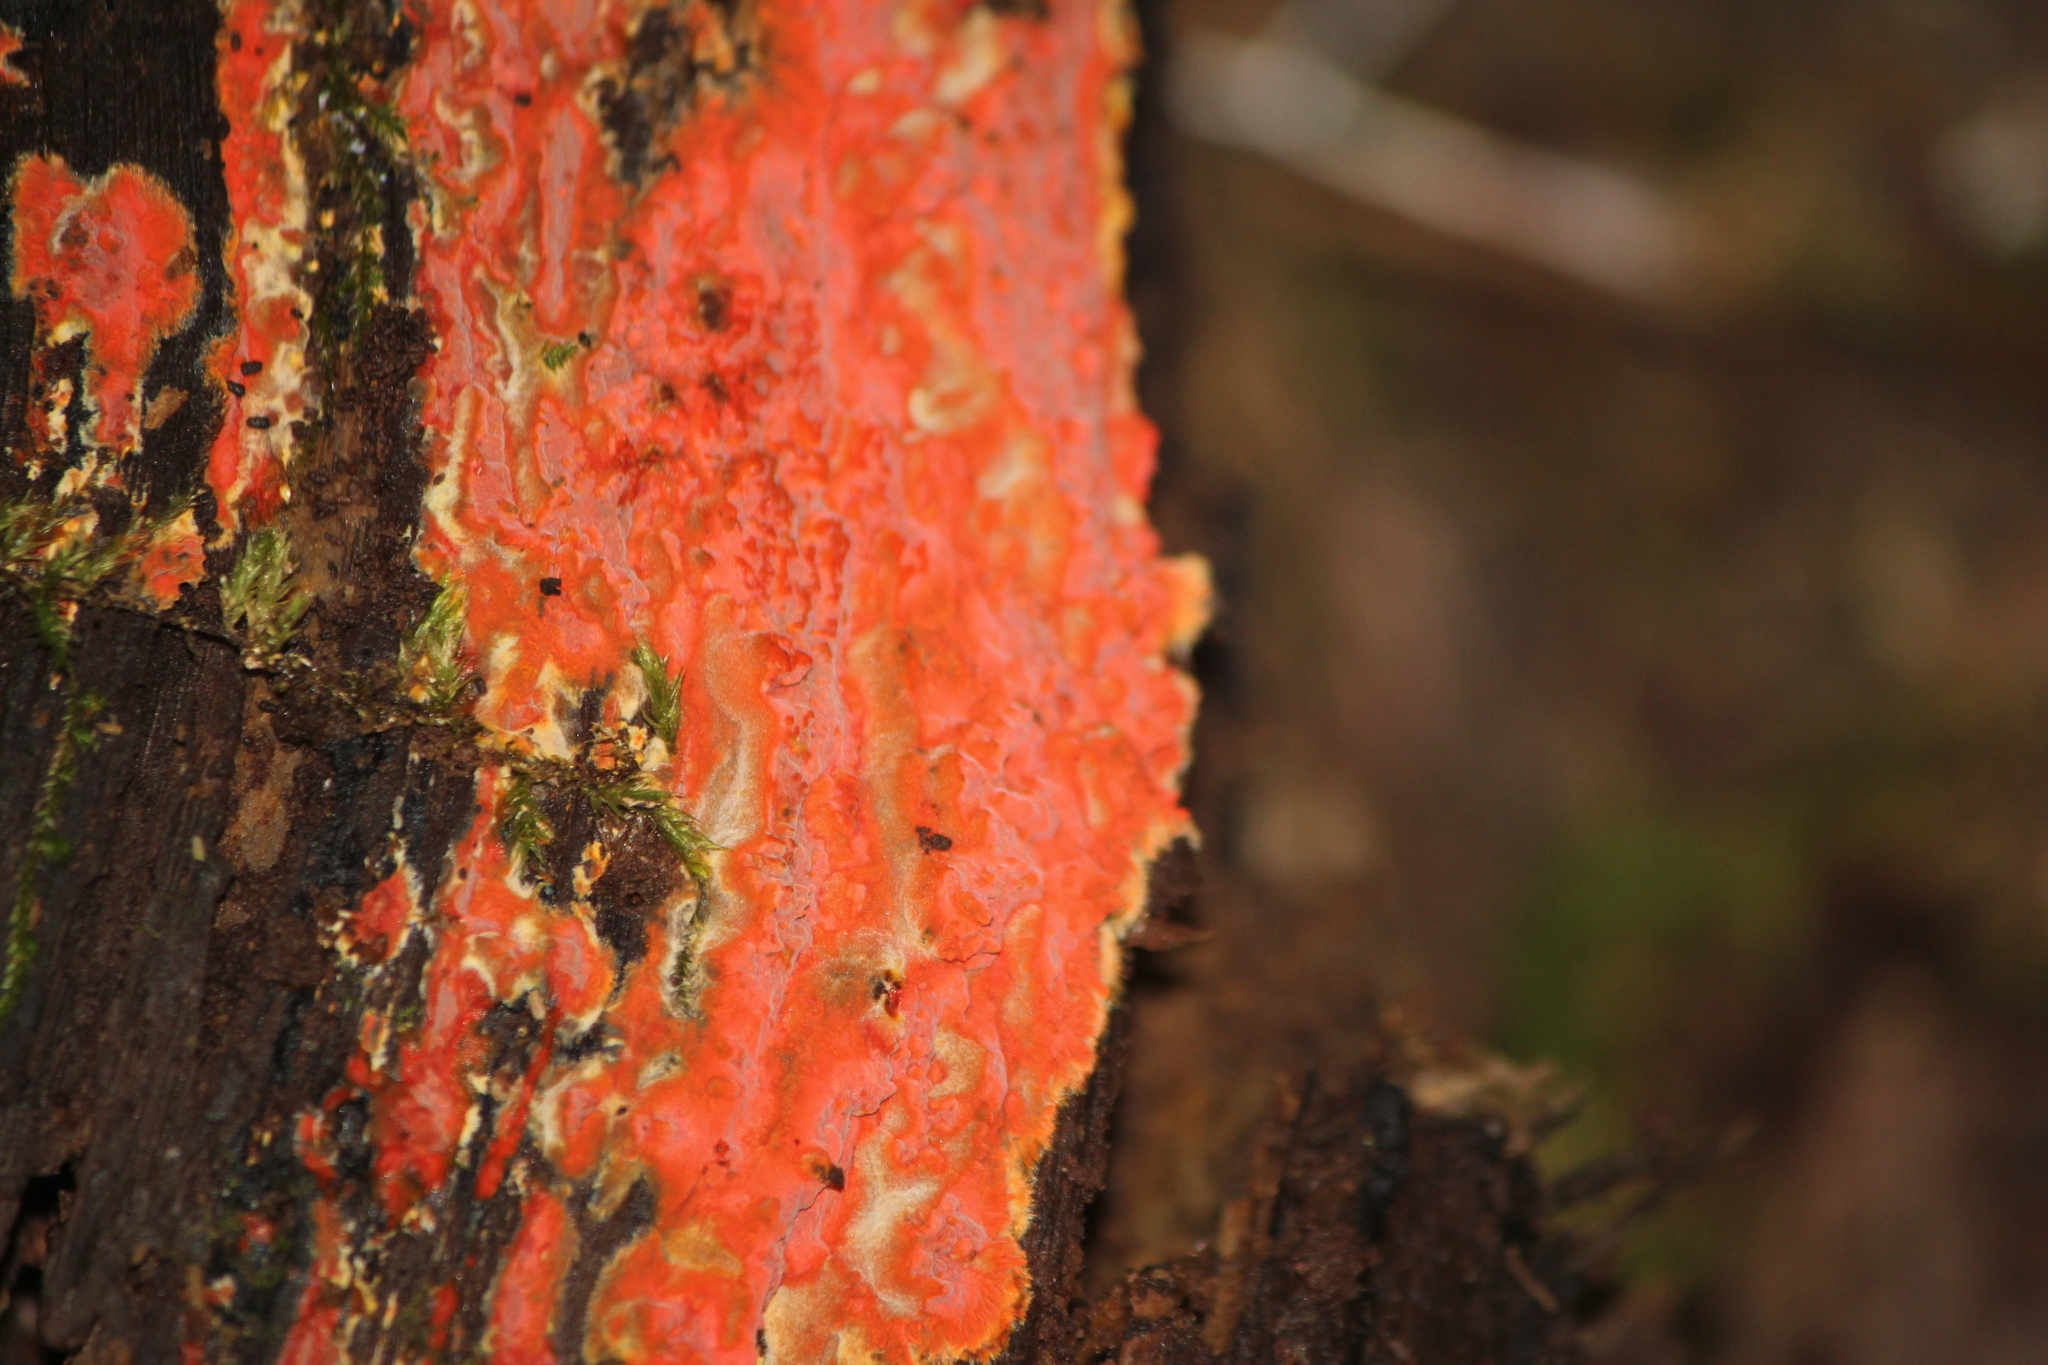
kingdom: Fungi
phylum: Basidiomycota
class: Agaricomycetes
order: Polyporales
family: Meruliaceae
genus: Phlebia
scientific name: Phlebia coccineofulva
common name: Scarlet waxcrust
